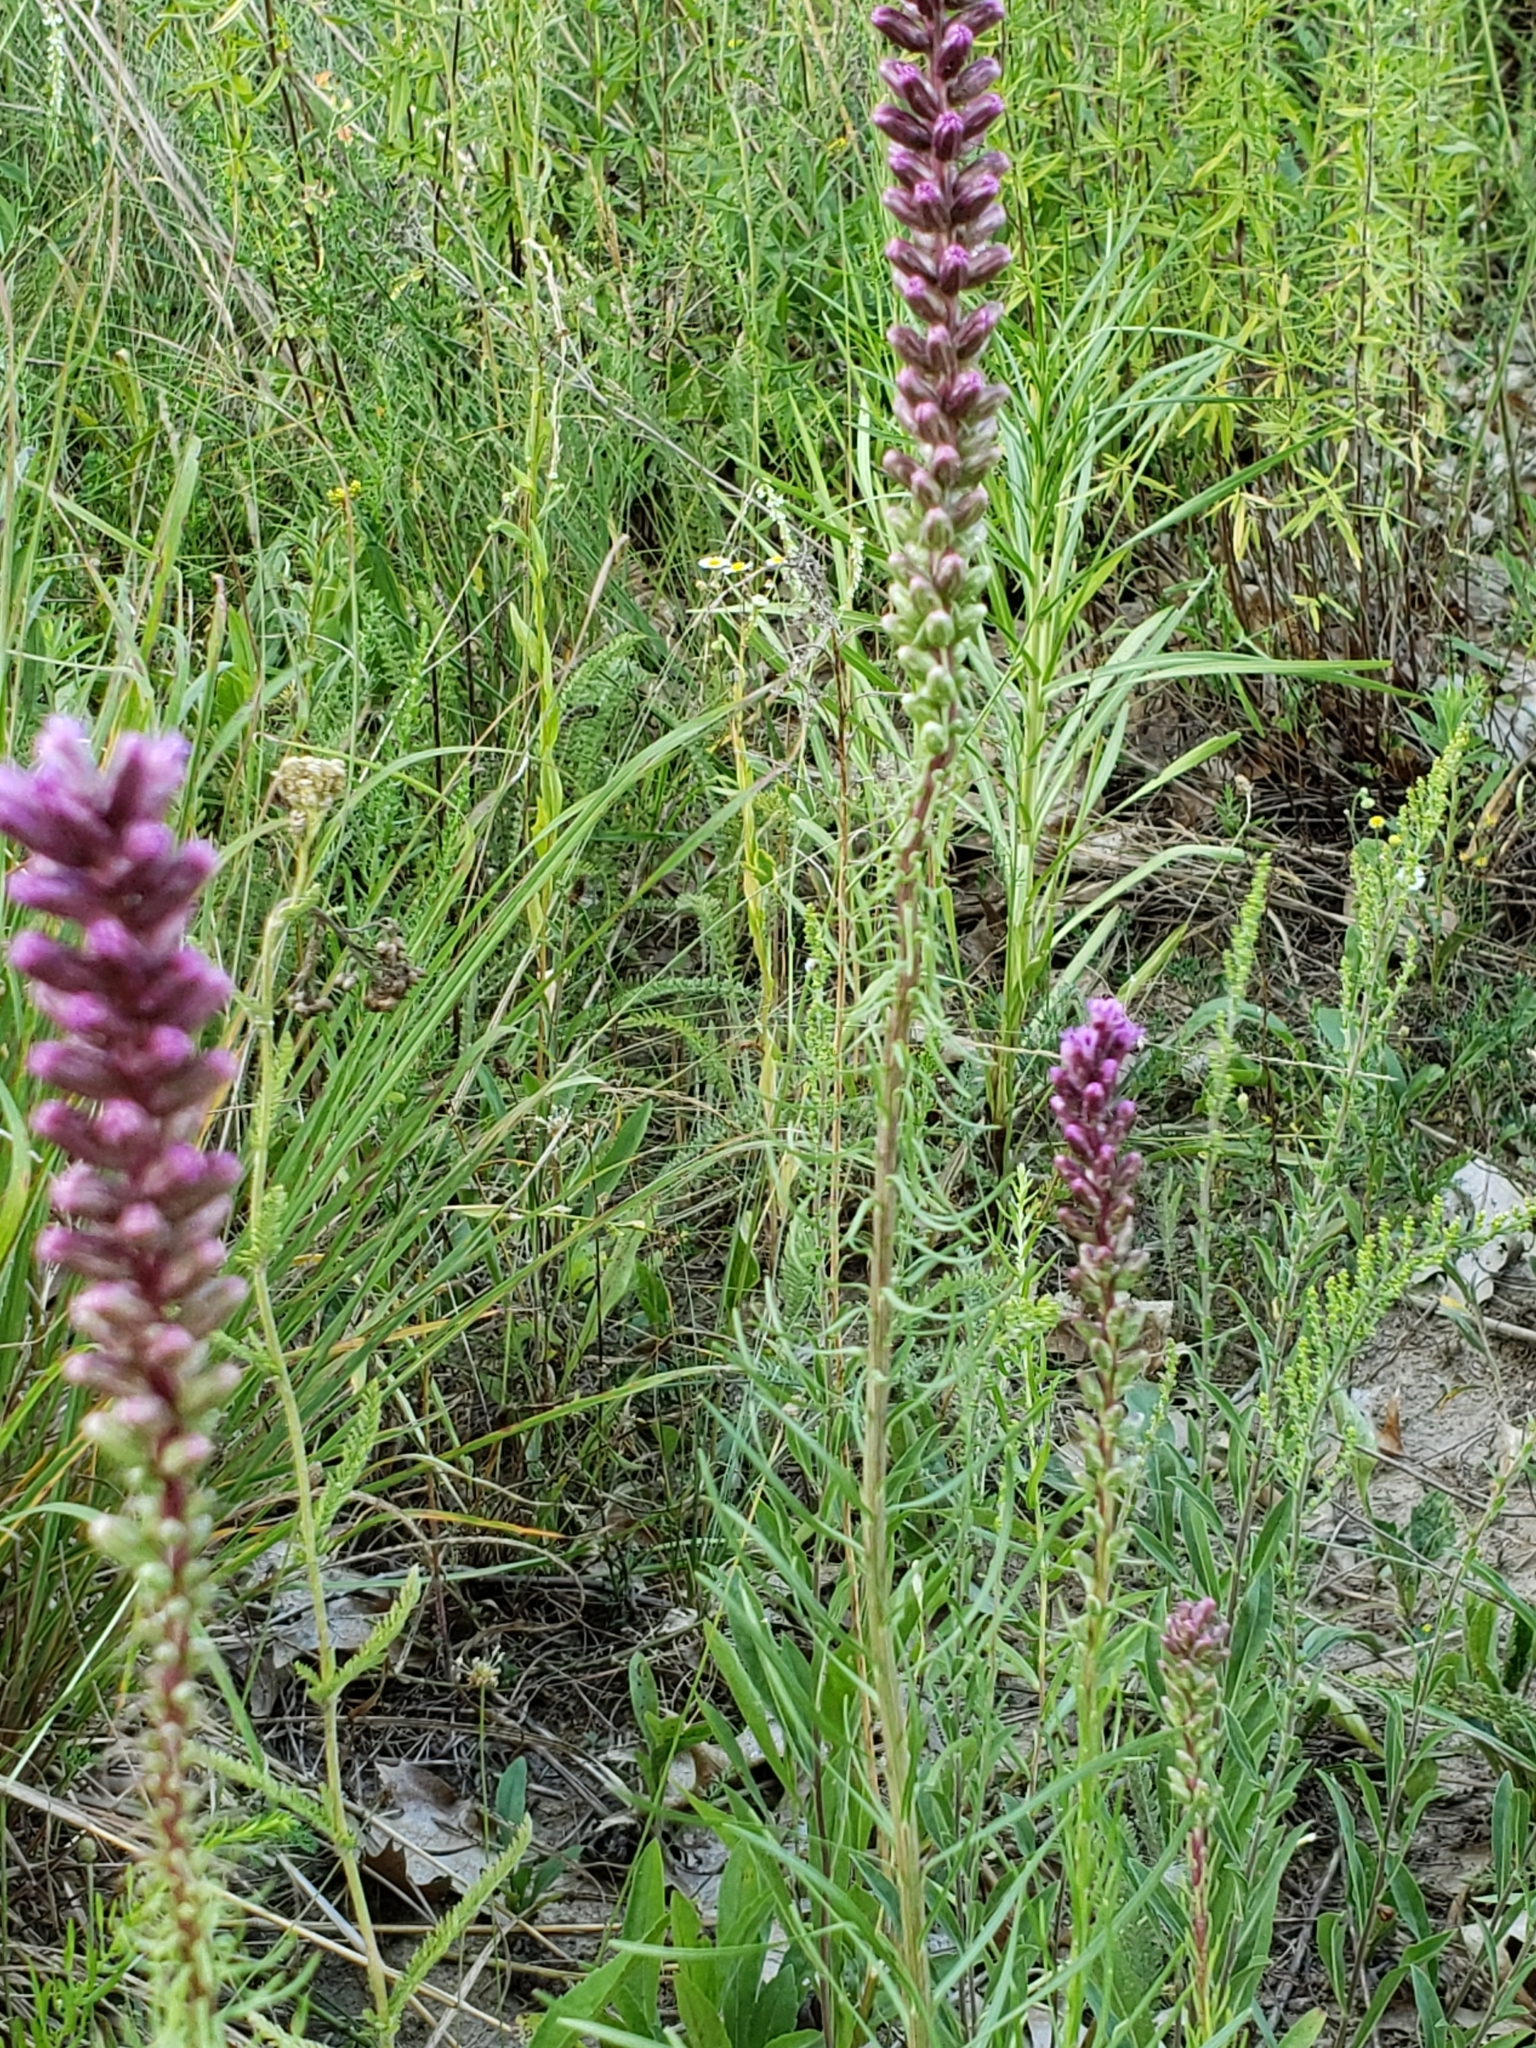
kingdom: Plantae
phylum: Tracheophyta
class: Magnoliopsida
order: Asterales
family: Asteraceae
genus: Liatris
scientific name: Liatris spicata
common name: Florist gayfeather
